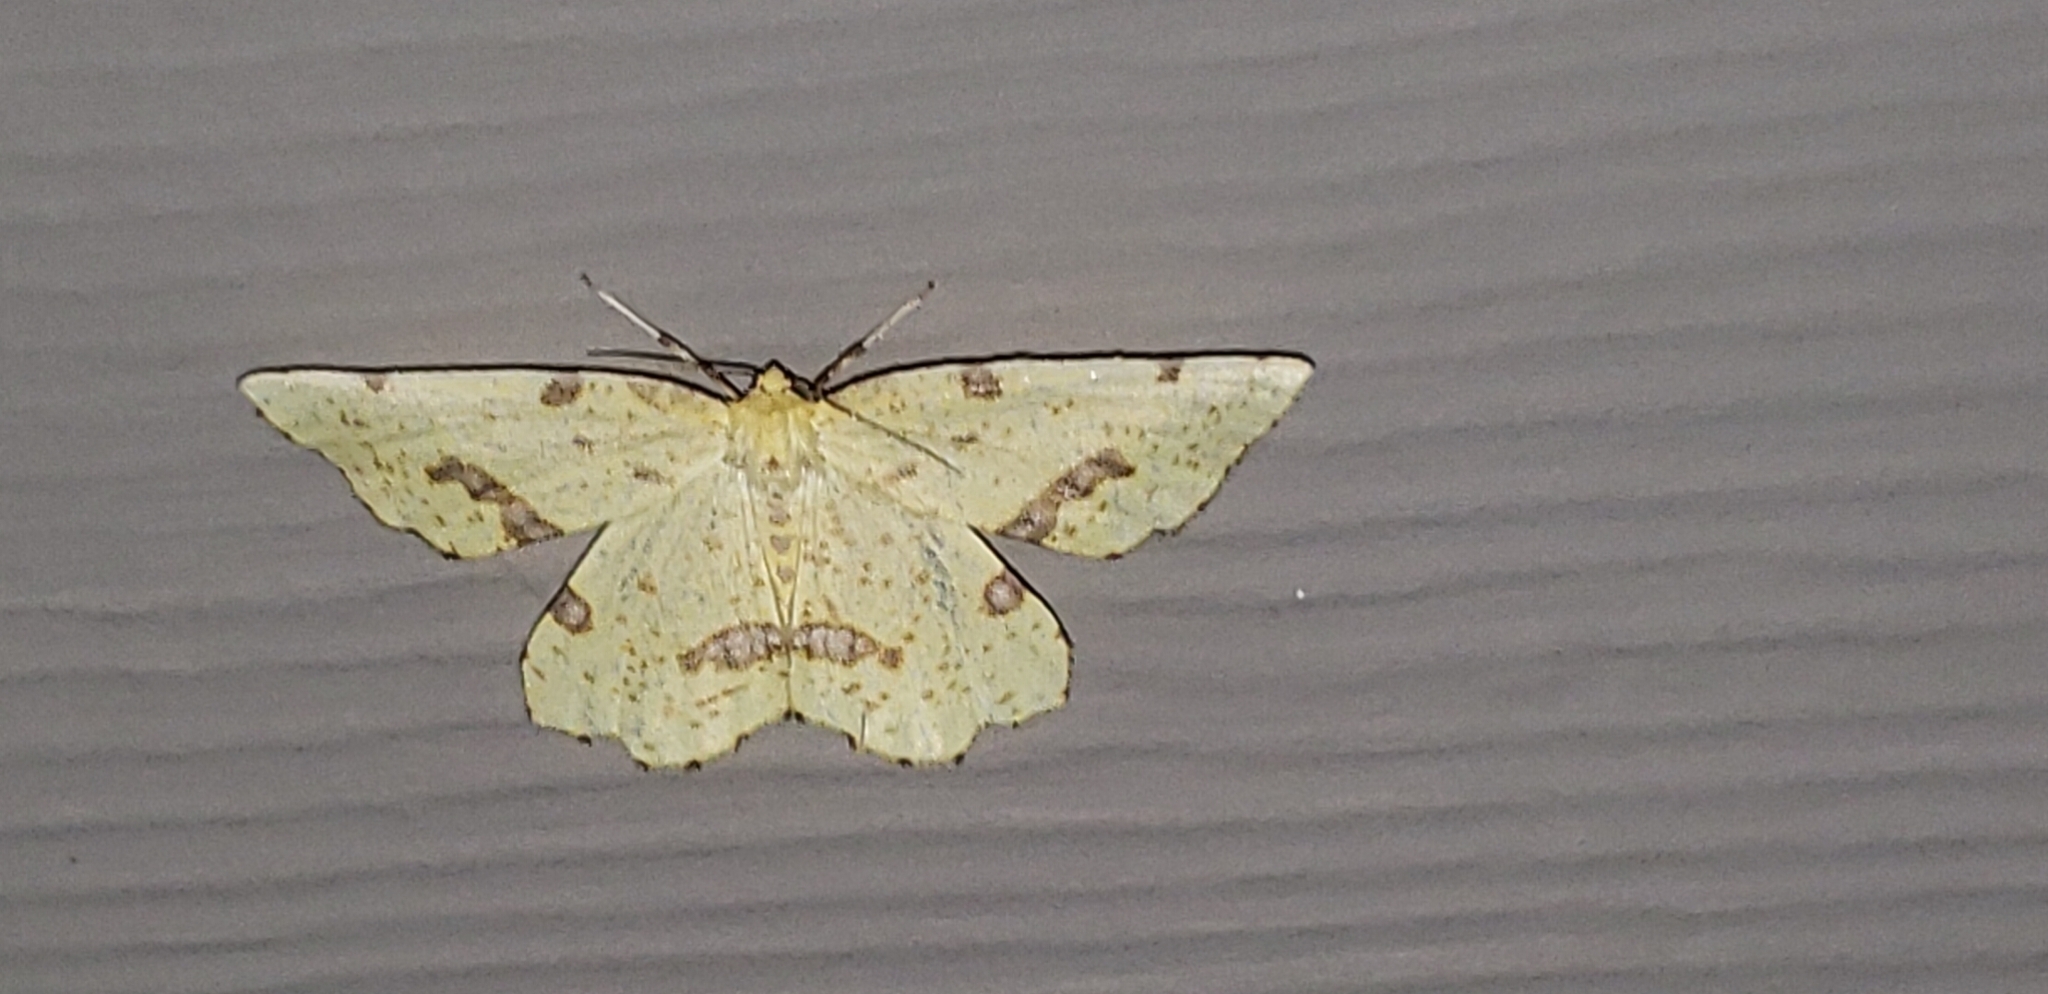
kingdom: Animalia
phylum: Arthropoda
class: Insecta
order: Lepidoptera
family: Geometridae
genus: Xanthotype
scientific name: Xanthotype
